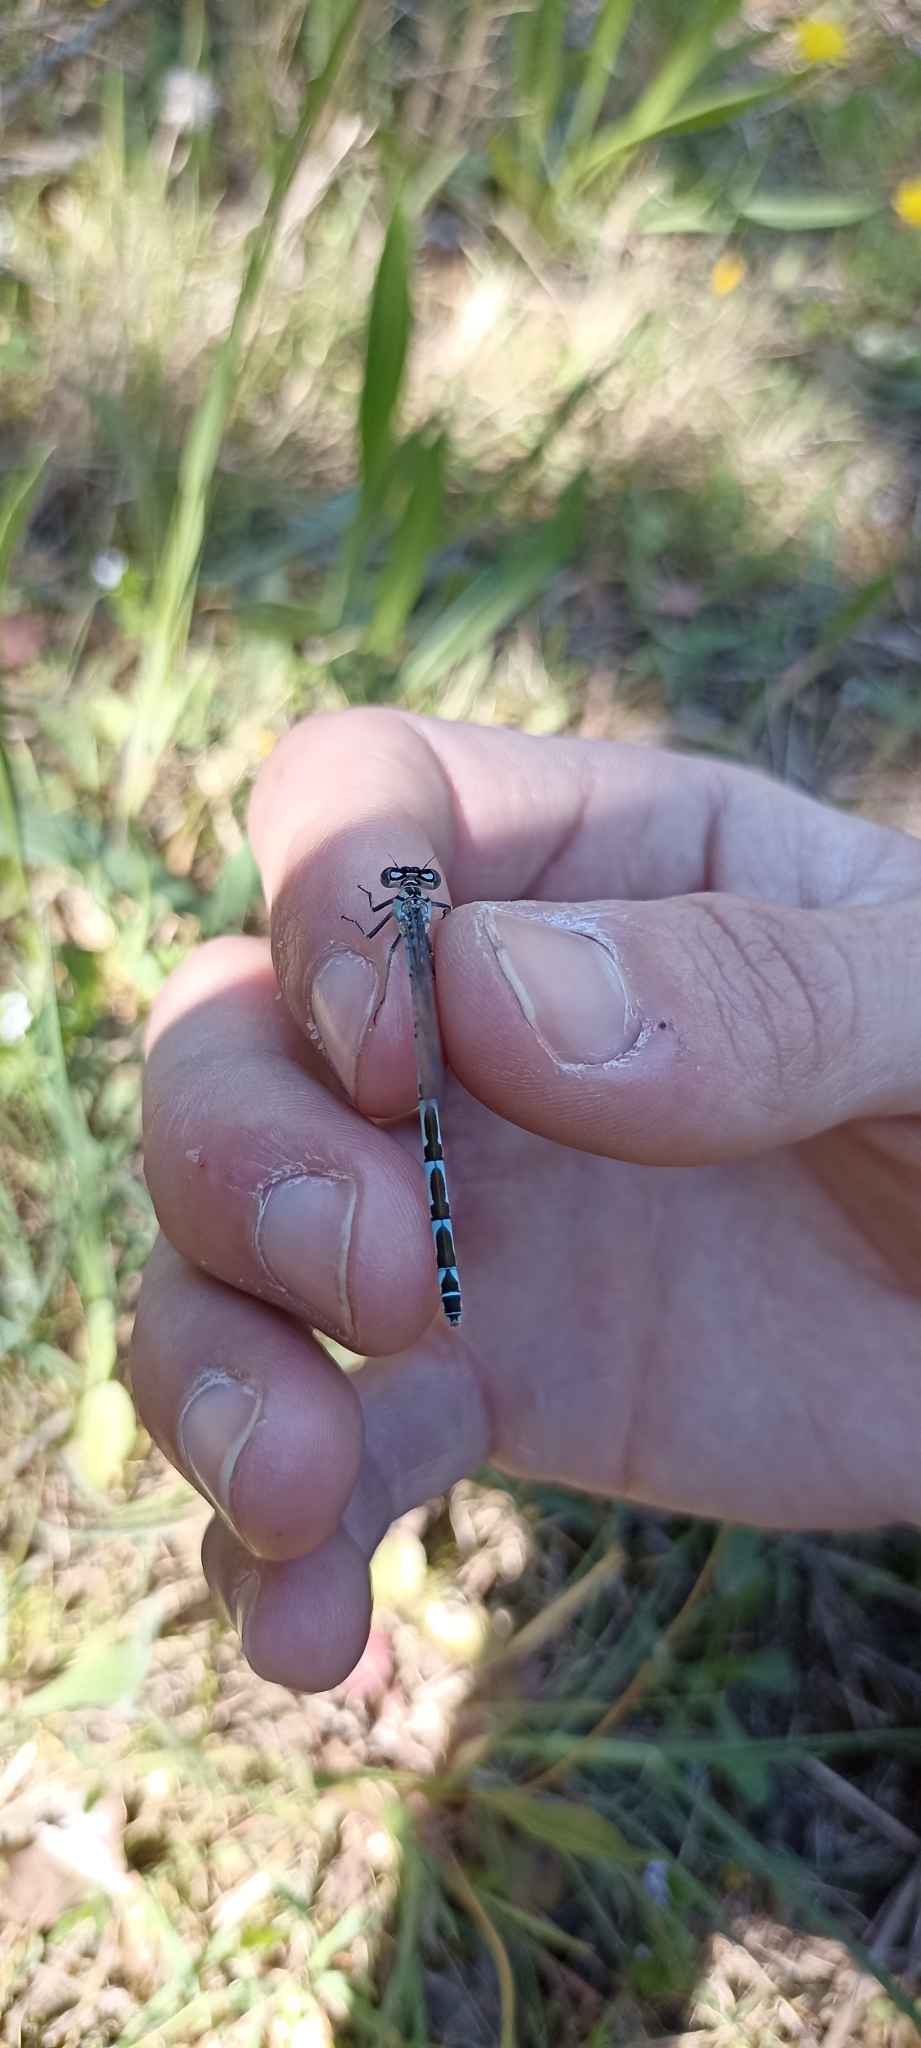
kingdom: Animalia
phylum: Arthropoda
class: Insecta
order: Odonata
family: Coenagrionidae
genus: Enallagma
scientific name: Enallagma cyathigerum
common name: Common blue damselfly
